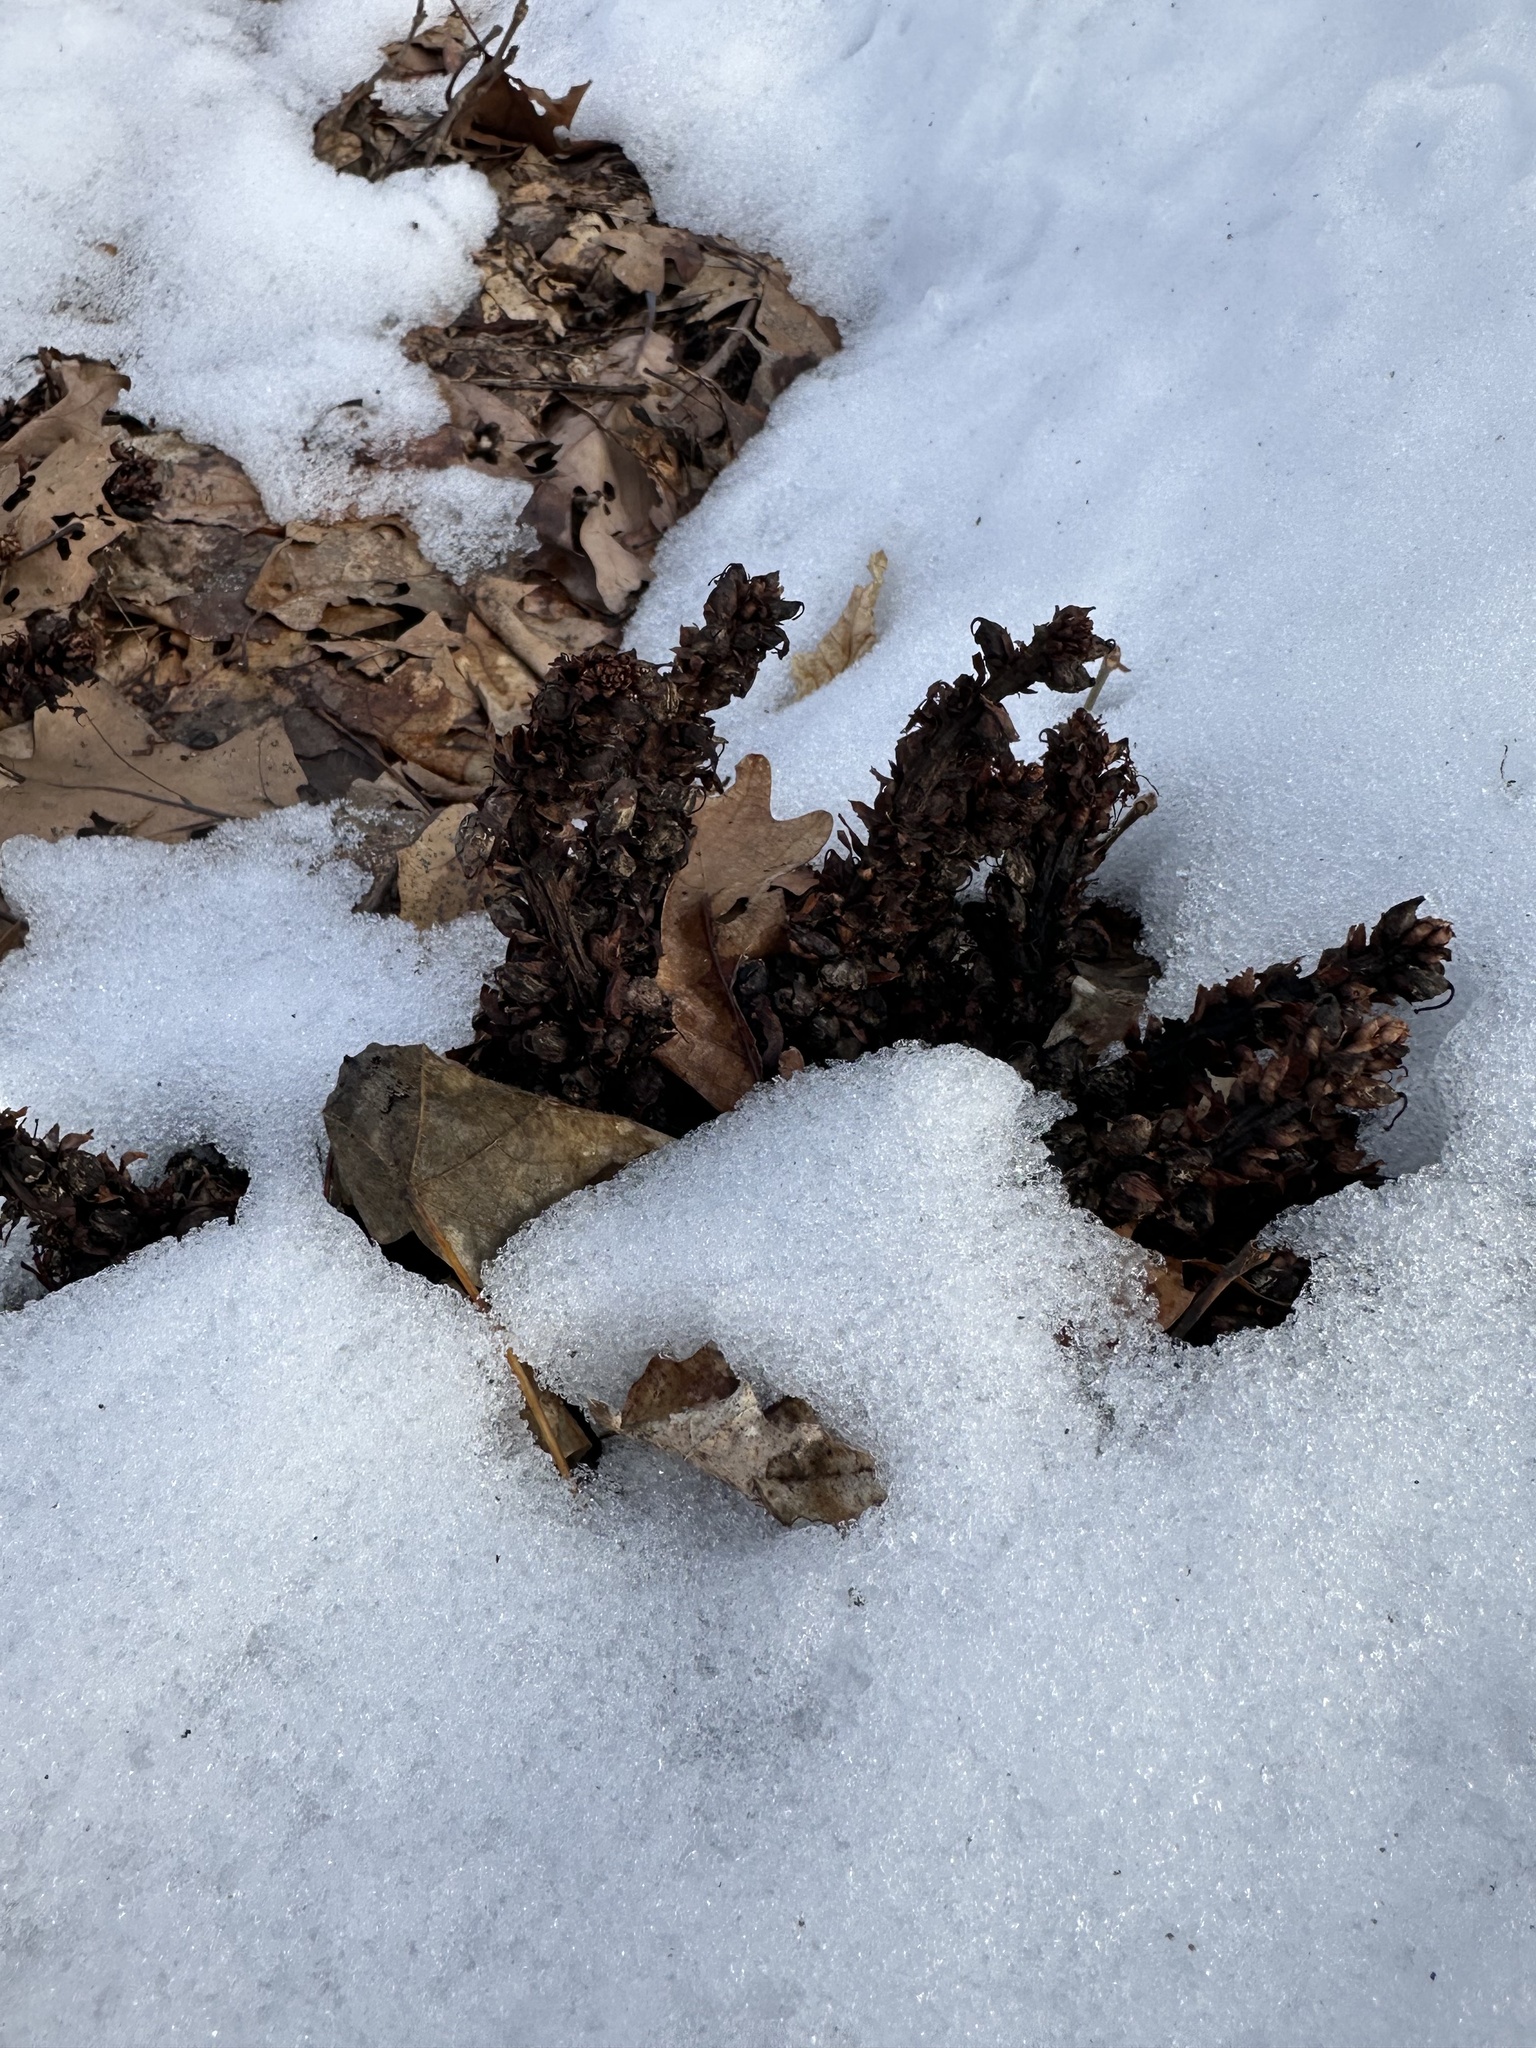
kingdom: Plantae
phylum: Tracheophyta
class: Magnoliopsida
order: Lamiales
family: Orobanchaceae
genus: Conopholis
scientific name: Conopholis americana
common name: American cancer-root
